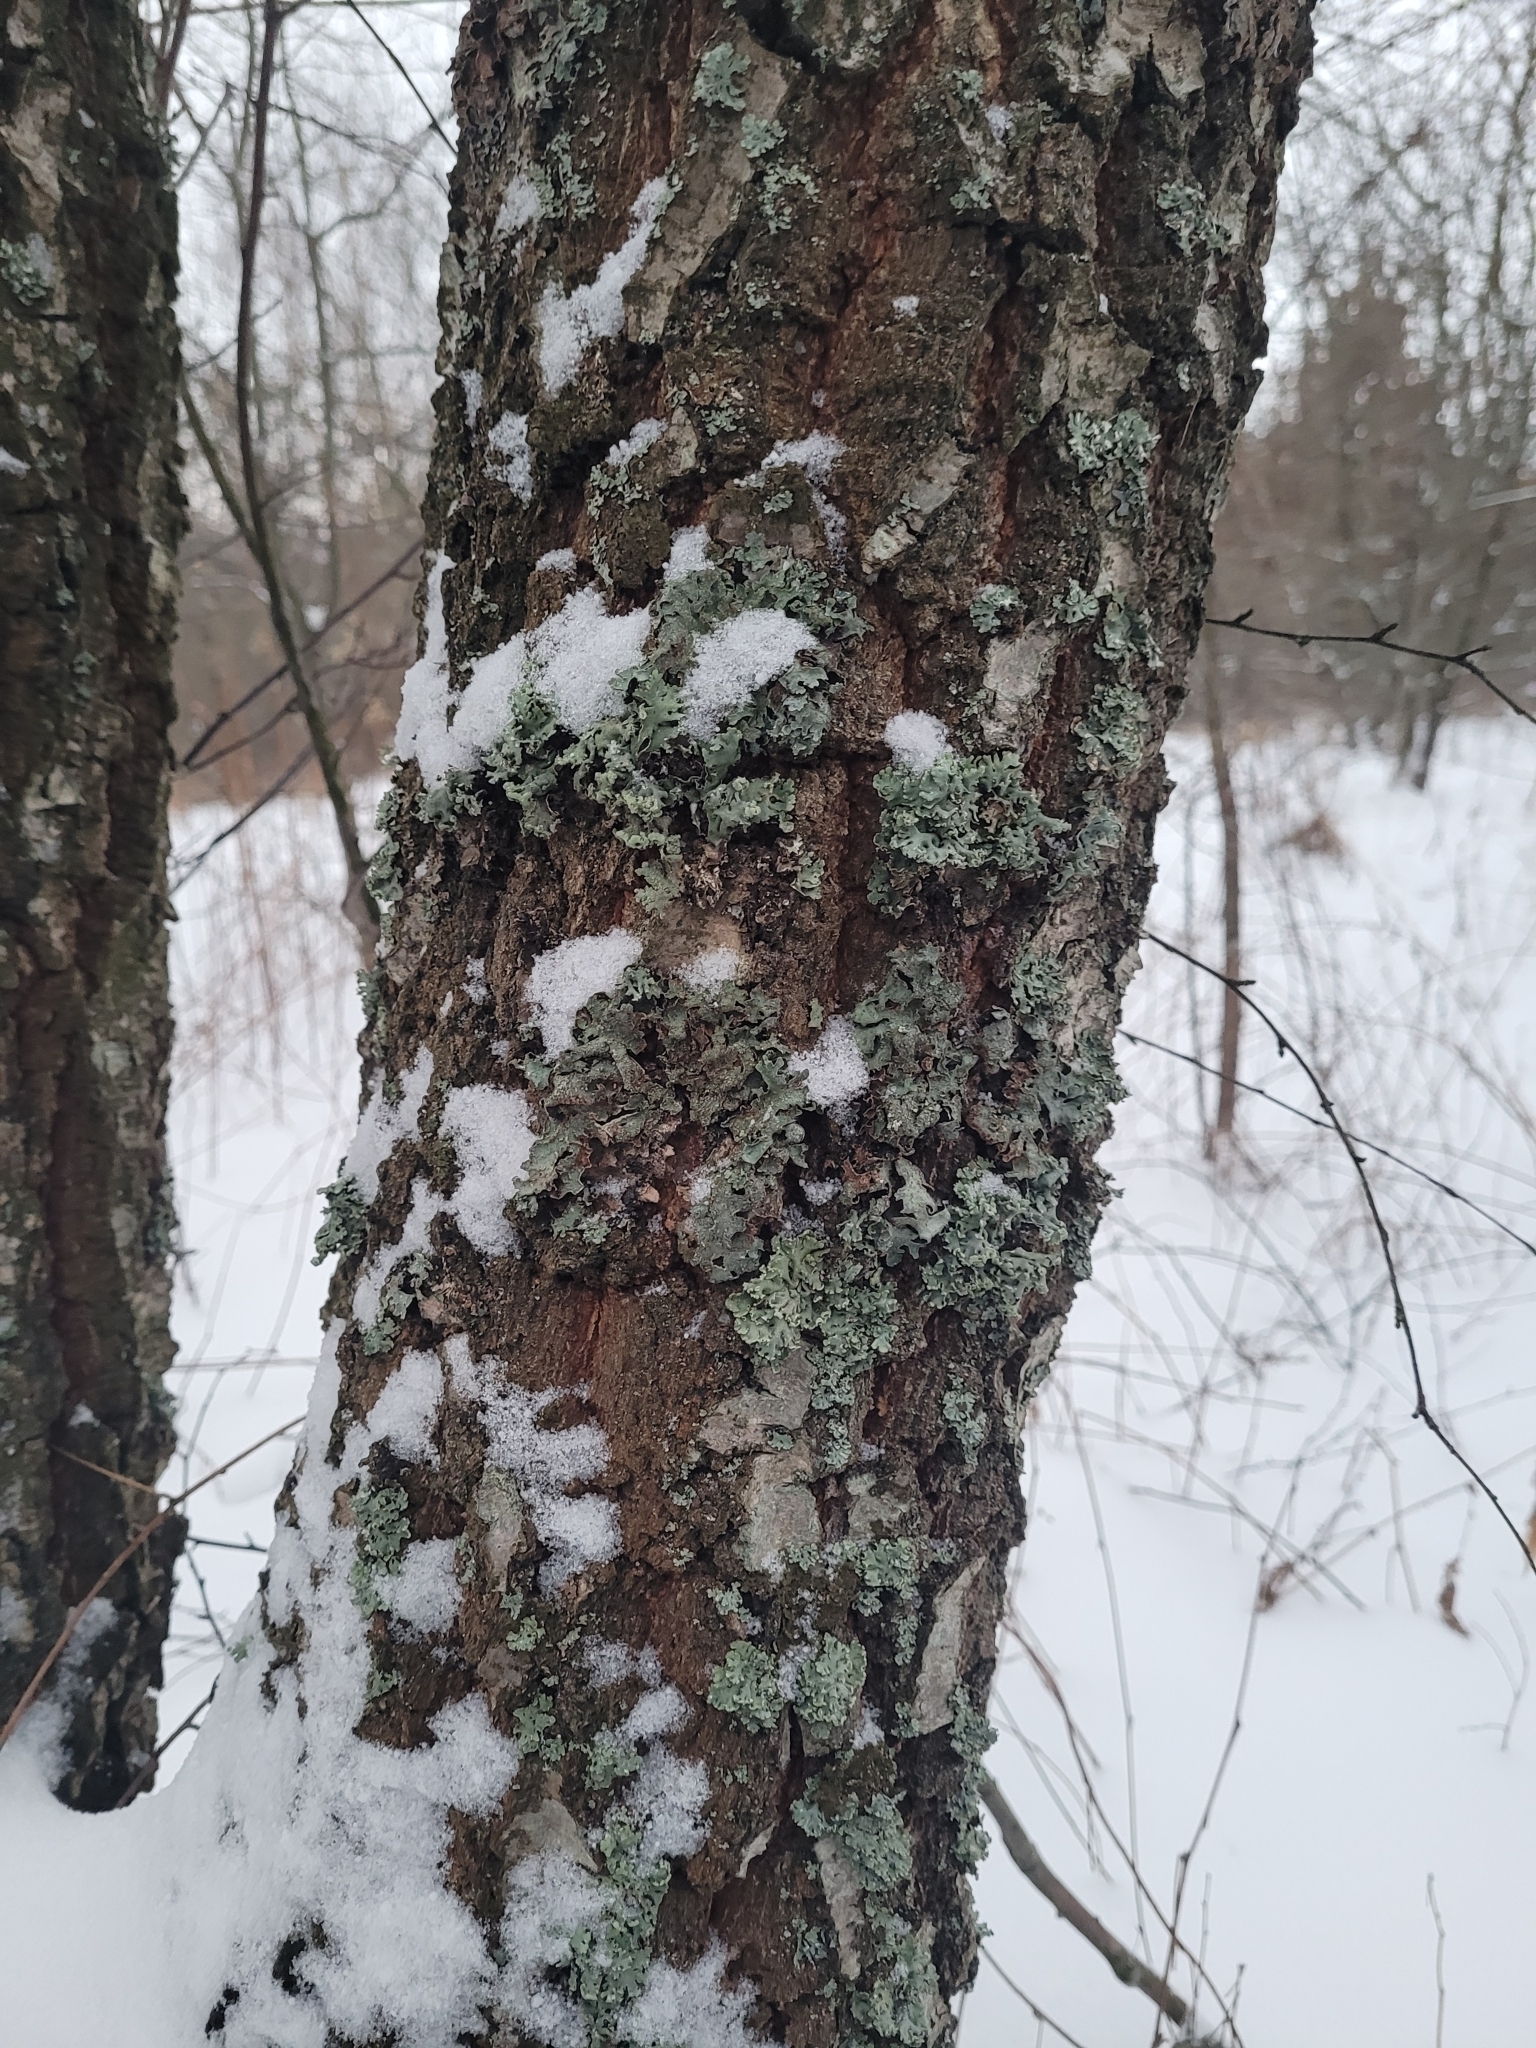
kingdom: Fungi
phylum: Ascomycota
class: Lecanoromycetes
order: Lecanorales
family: Parmeliaceae
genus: Parmelia
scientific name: Parmelia sulcata
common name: Netted shield lichen
